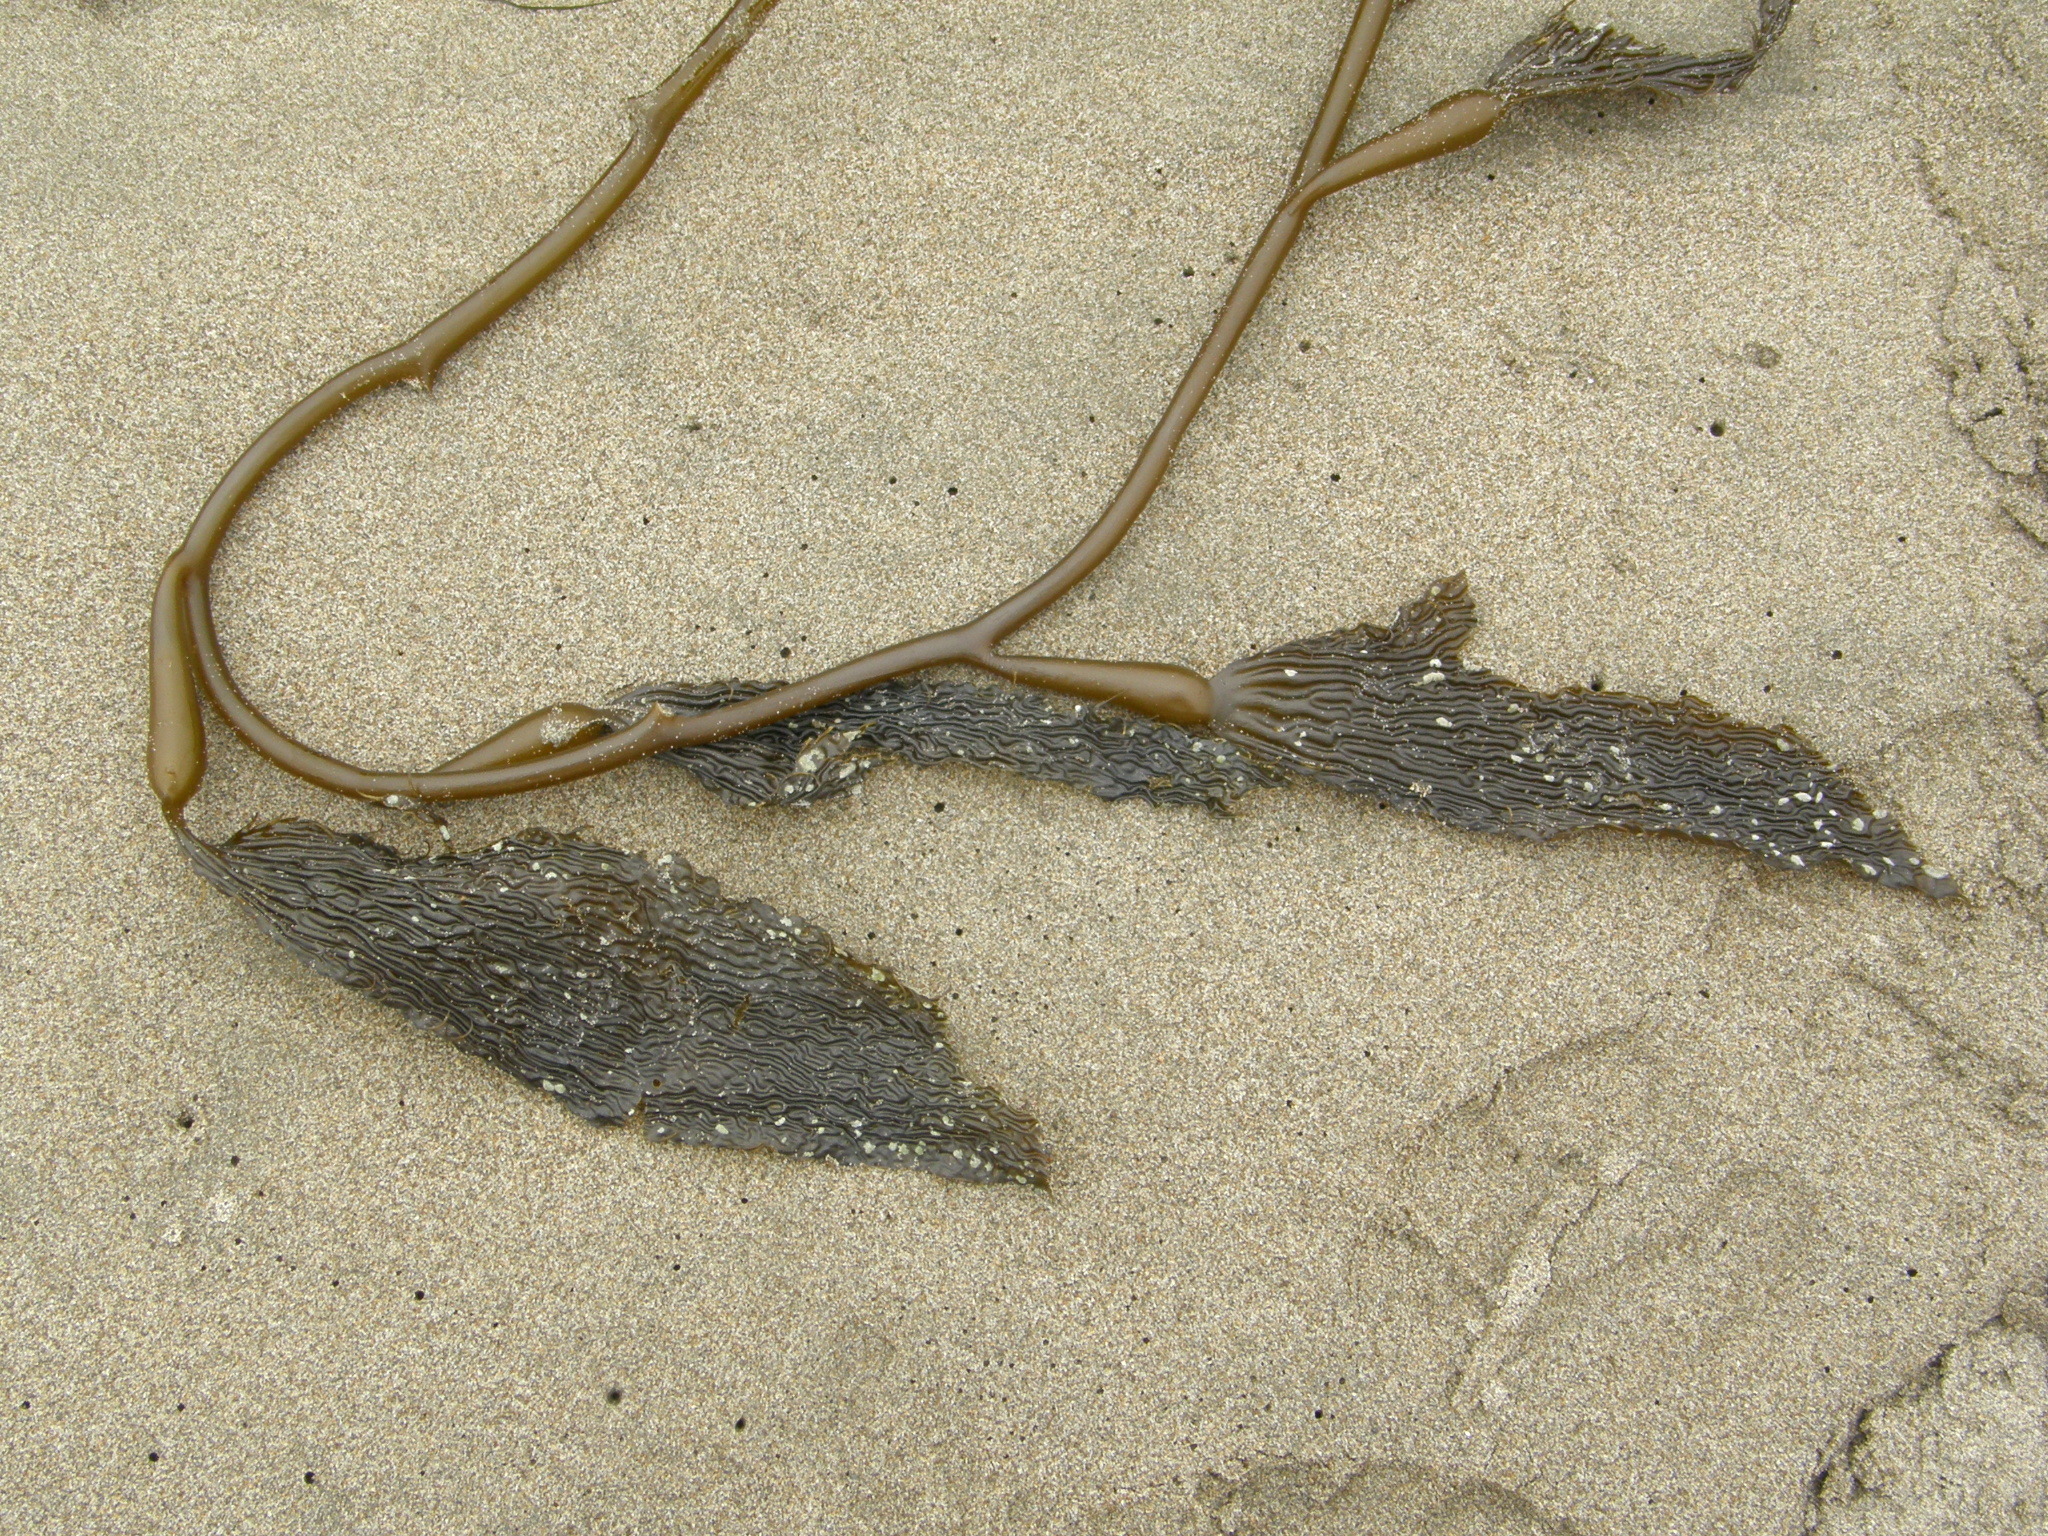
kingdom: Chromista
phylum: Ochrophyta
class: Phaeophyceae
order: Laminariales
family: Laminariaceae
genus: Macrocystis
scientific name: Macrocystis pyrifera
